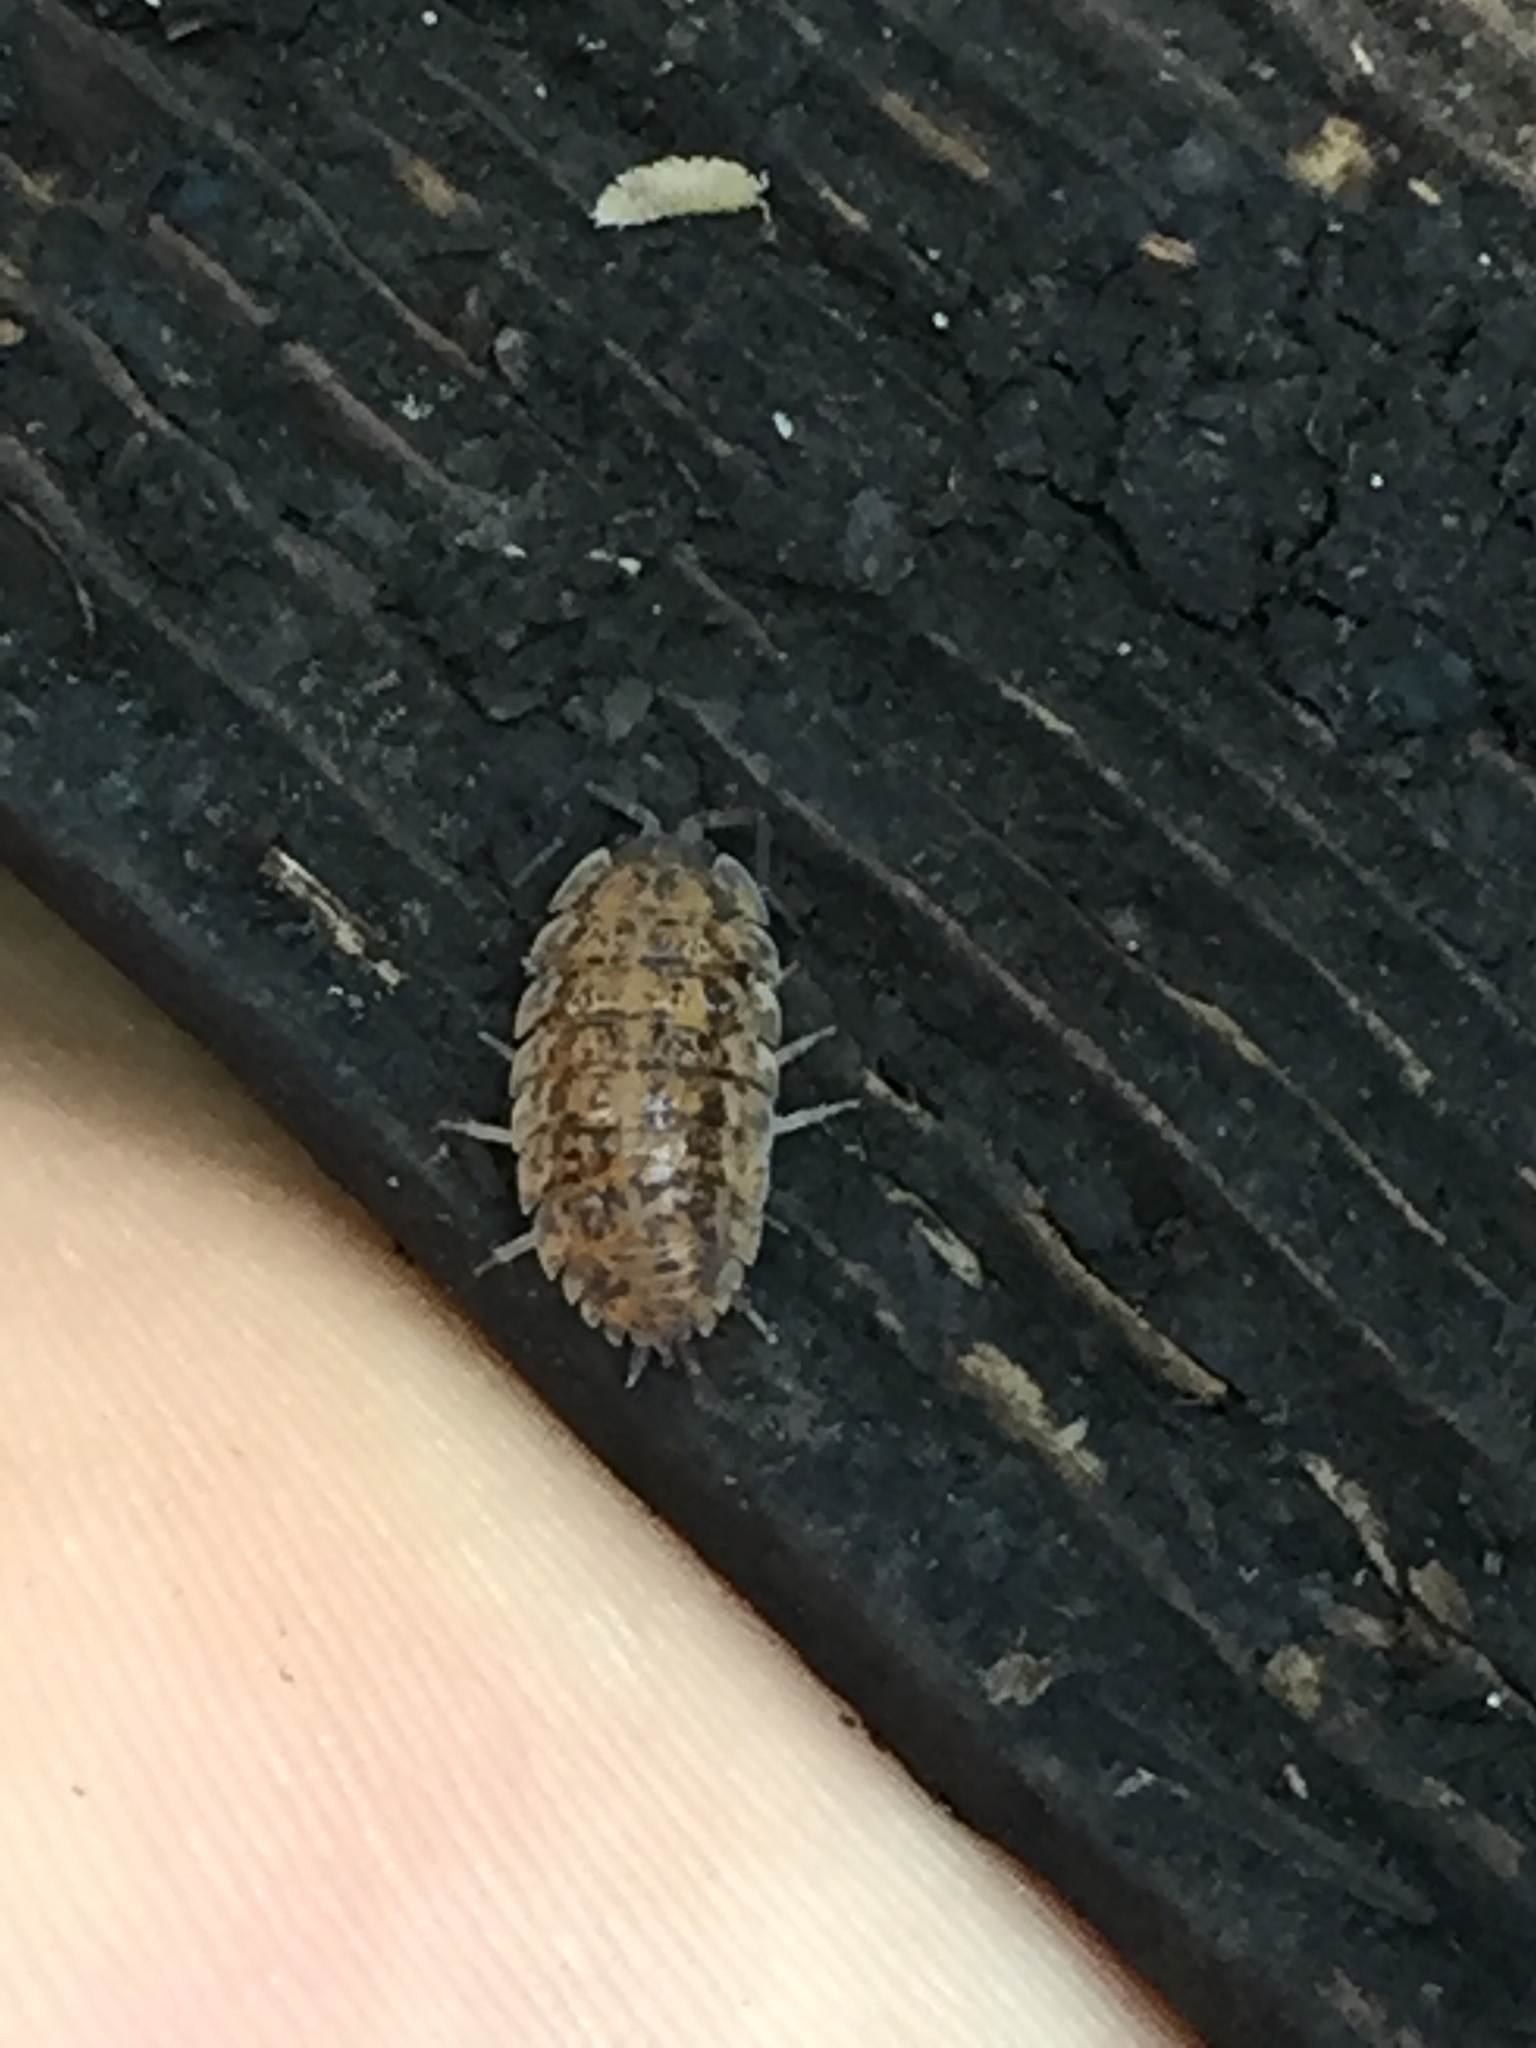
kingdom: Animalia
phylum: Arthropoda
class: Malacostraca
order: Isopoda
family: Trachelipodidae
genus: Trachelipus
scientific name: Trachelipus rathkii
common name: Isopod
